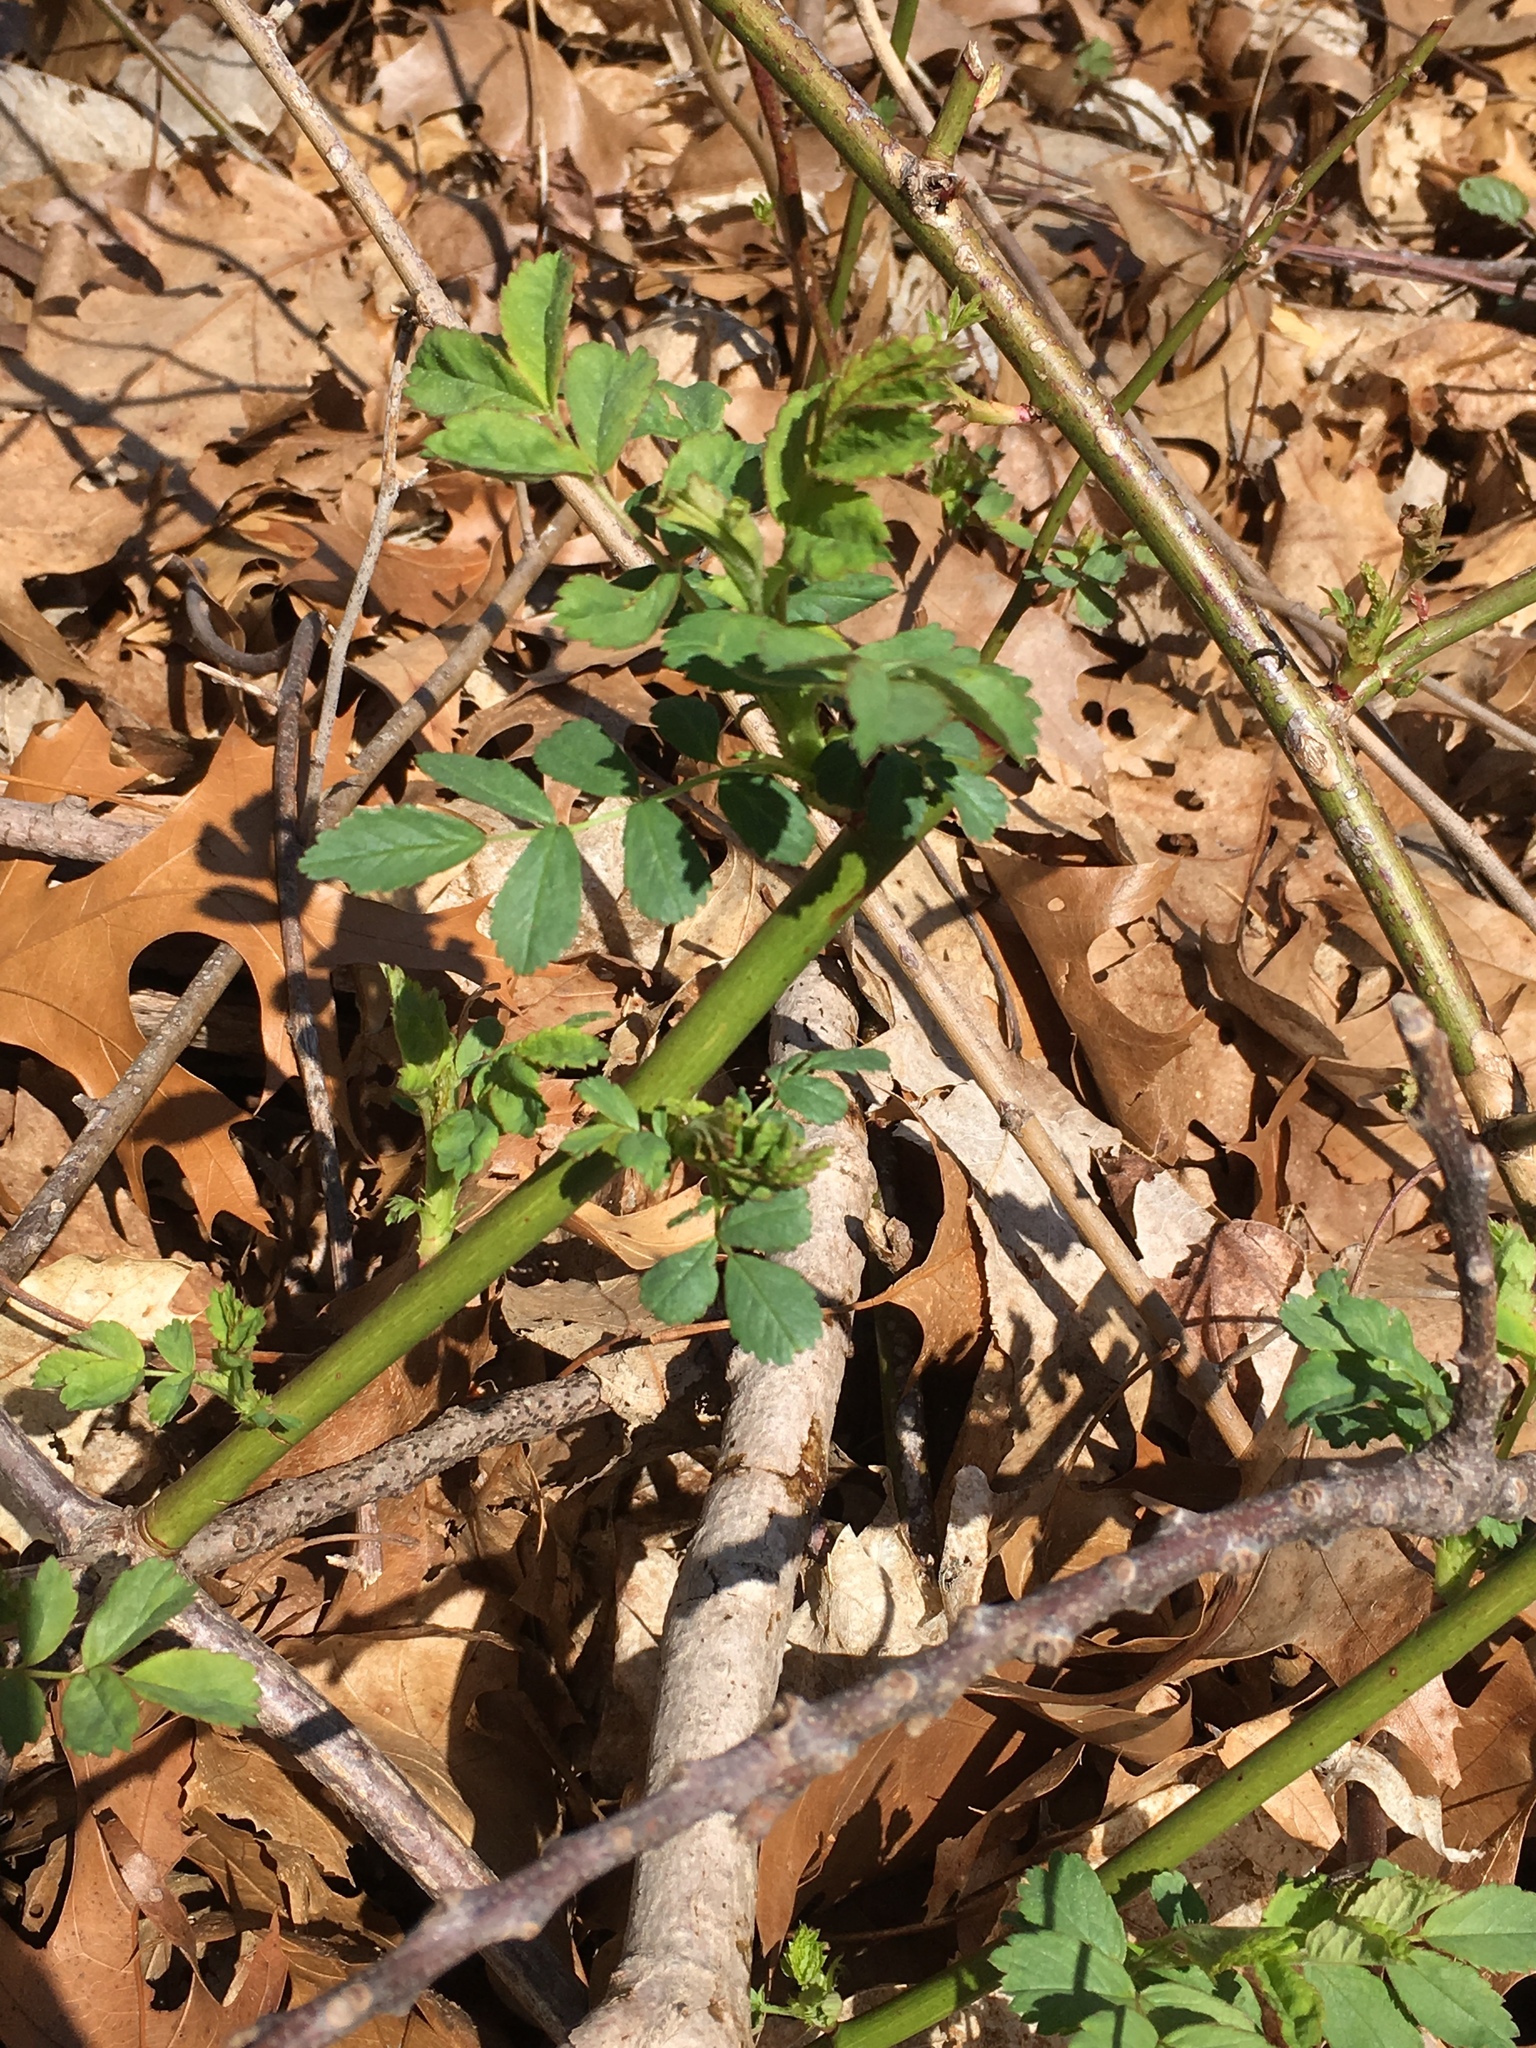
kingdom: Plantae
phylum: Tracheophyta
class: Magnoliopsida
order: Rosales
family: Rosaceae
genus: Rosa
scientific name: Rosa multiflora
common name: Multiflora rose
